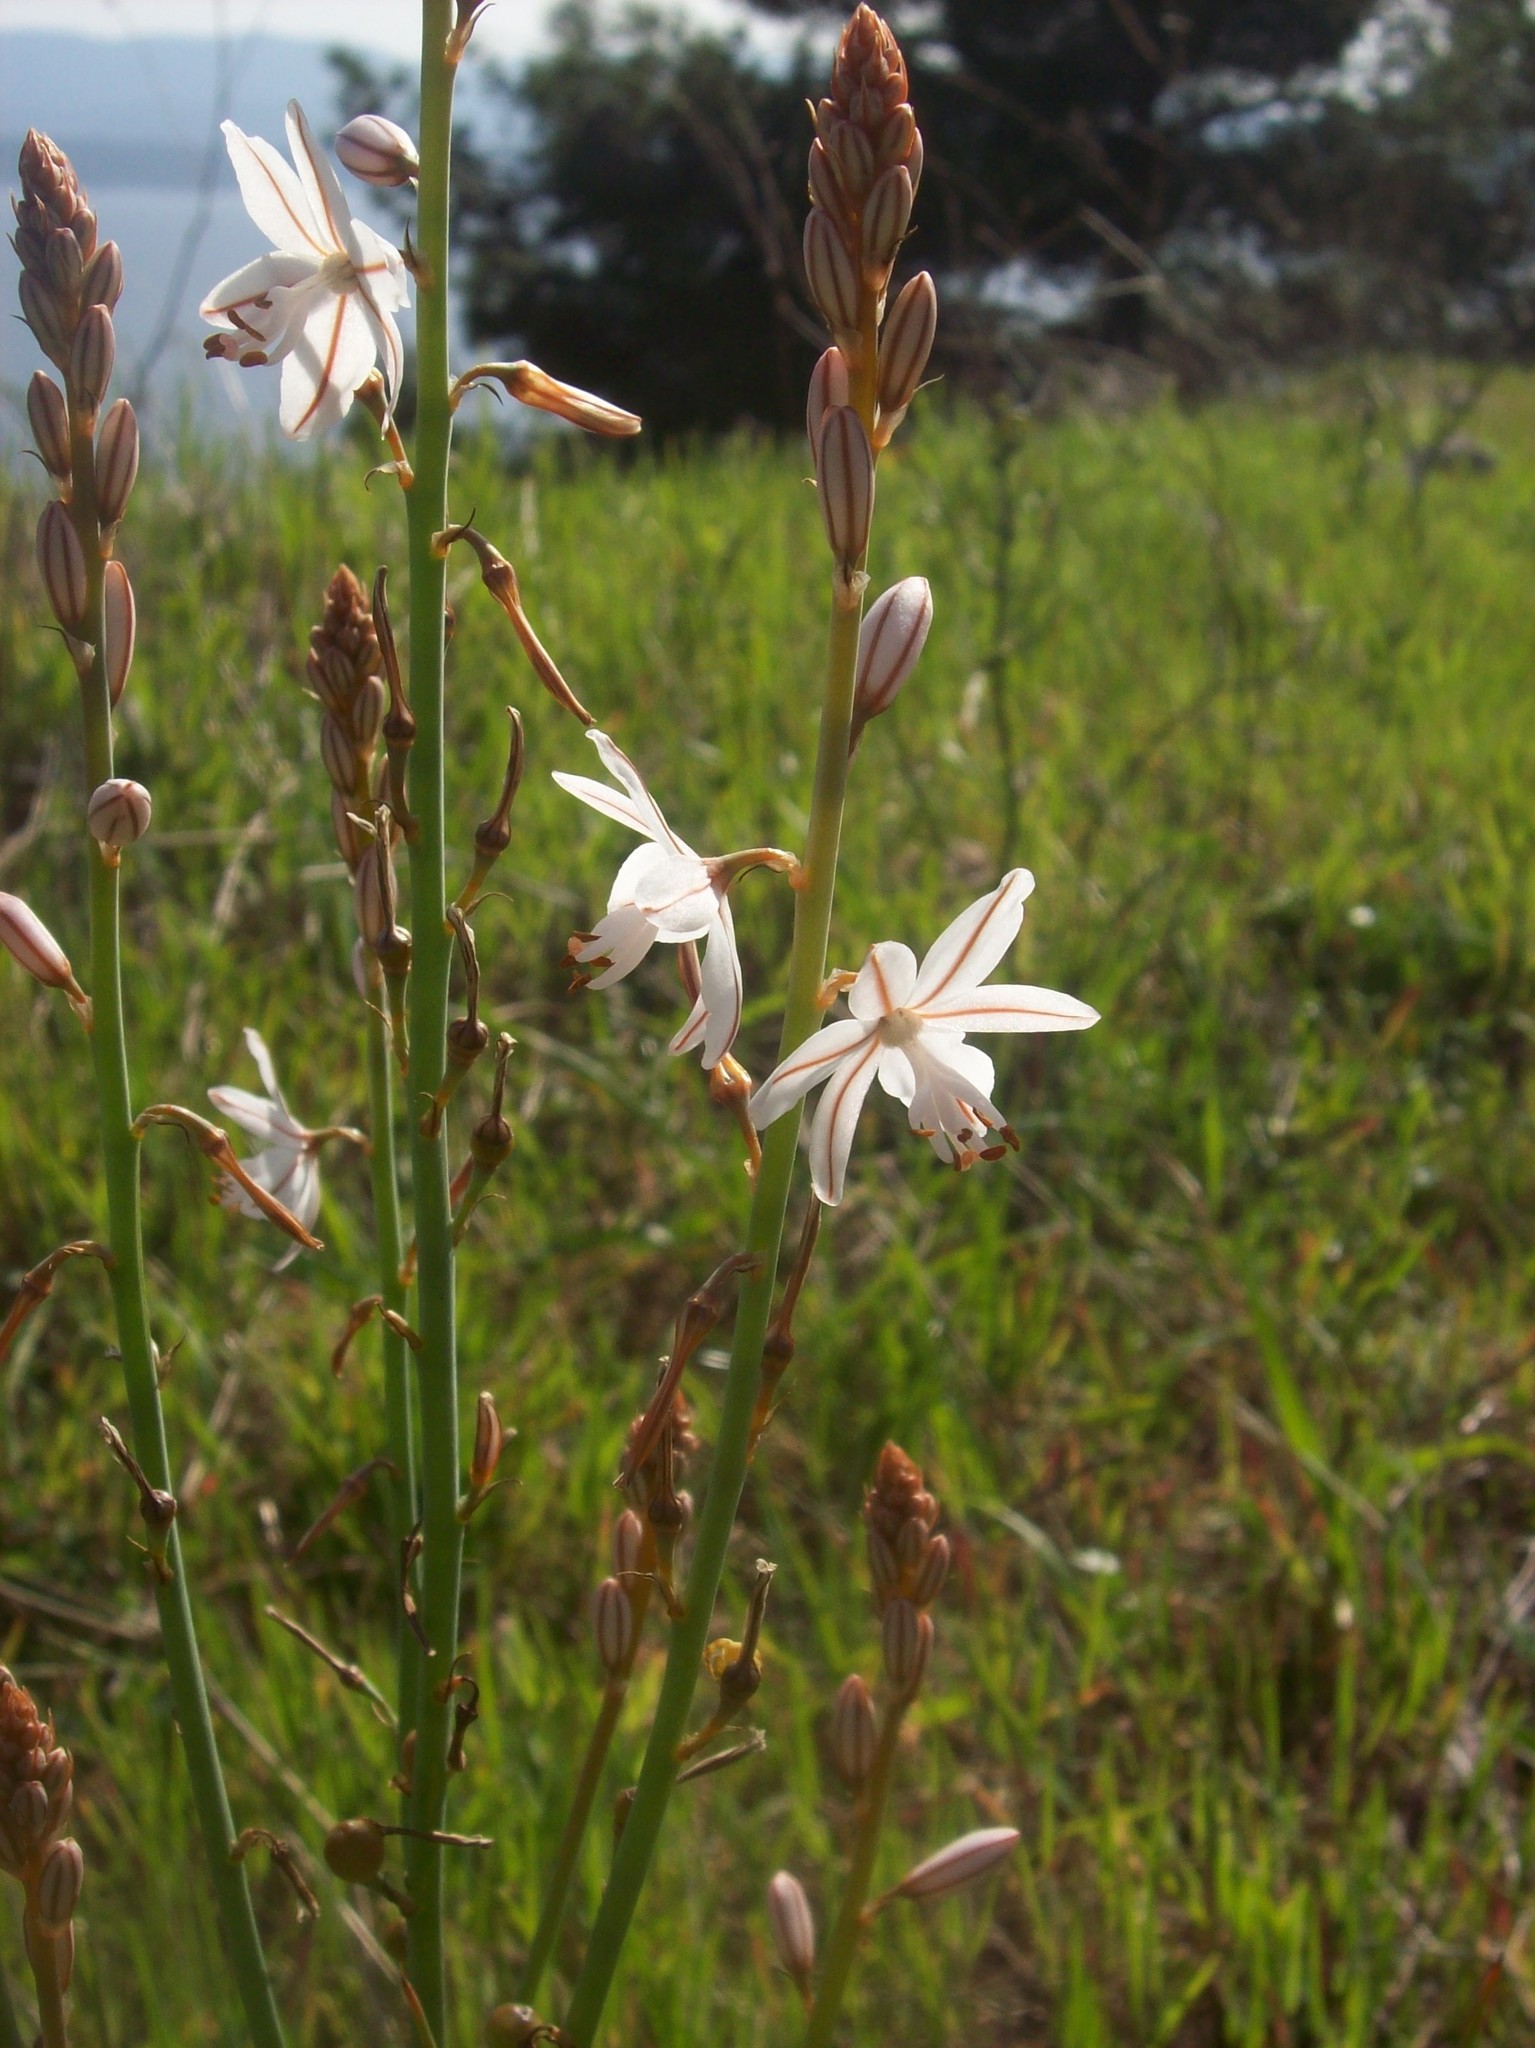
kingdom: Plantae
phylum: Tracheophyta
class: Liliopsida
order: Asparagales
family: Asphodelaceae
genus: Asphodelus
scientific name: Asphodelus fistulosus
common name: Onionweed
